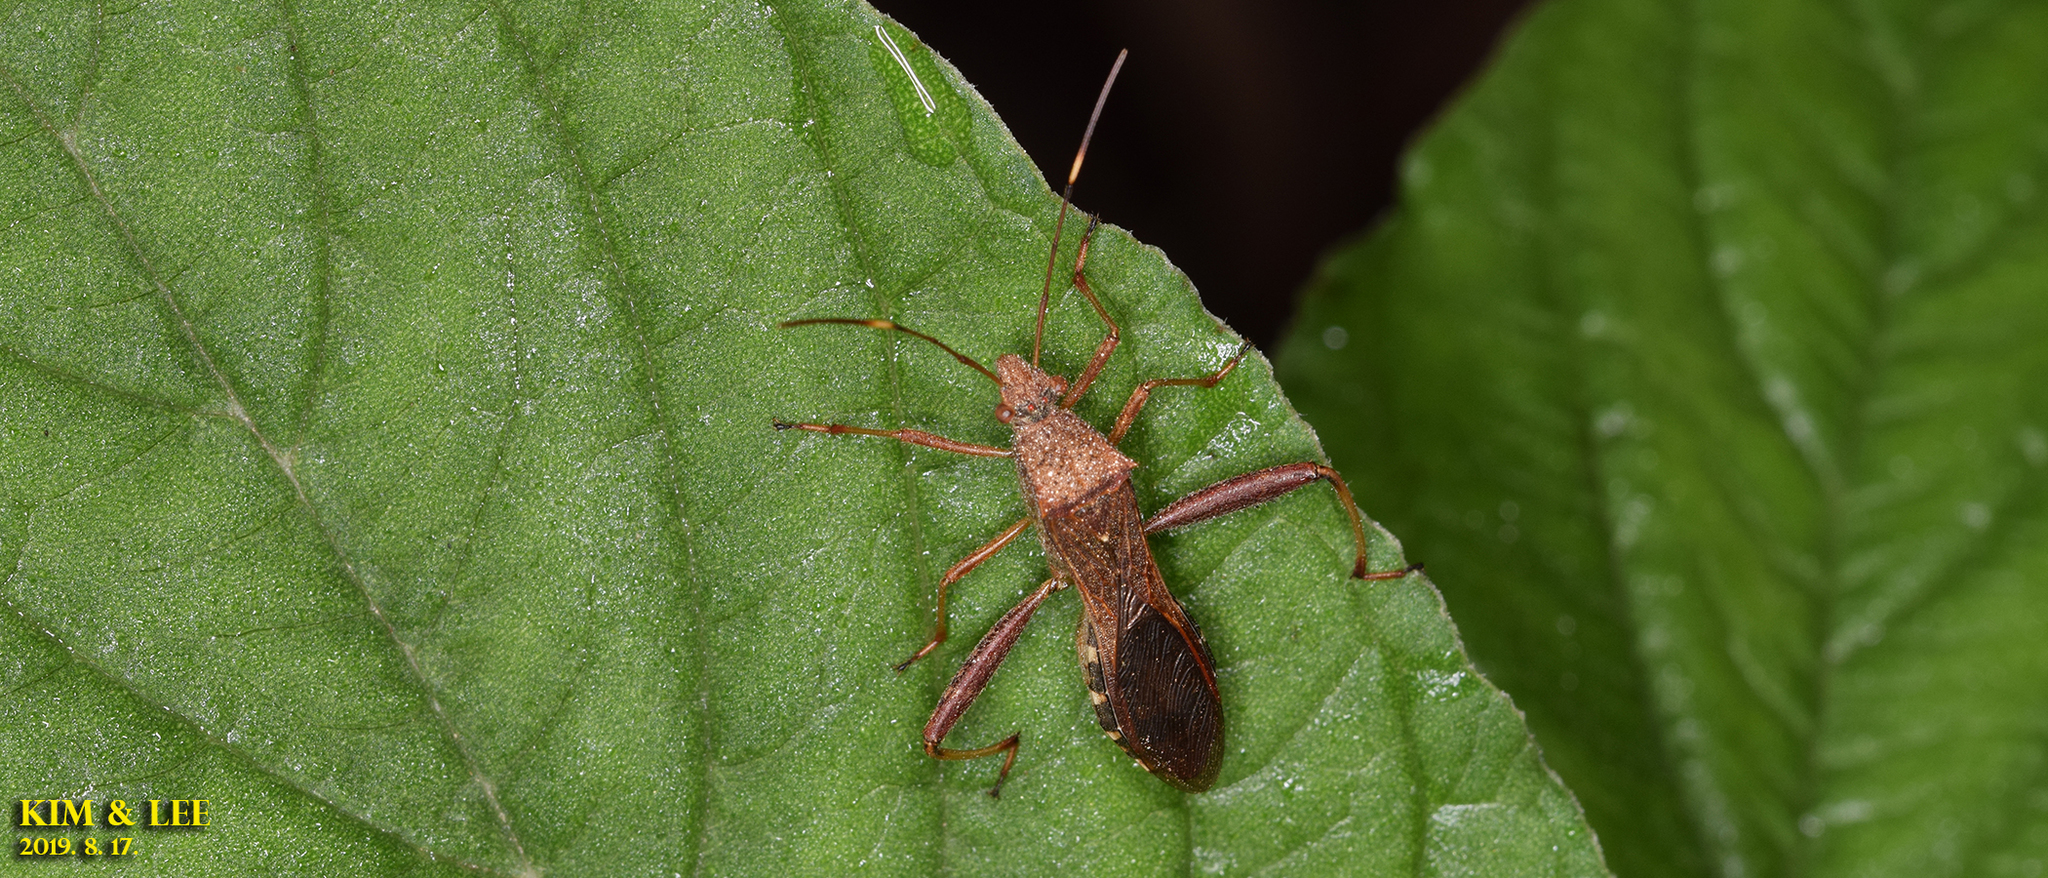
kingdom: Animalia
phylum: Arthropoda
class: Insecta
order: Hemiptera
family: Alydidae
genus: Riptortus
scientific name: Riptortus pedestris
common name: Bean bug
